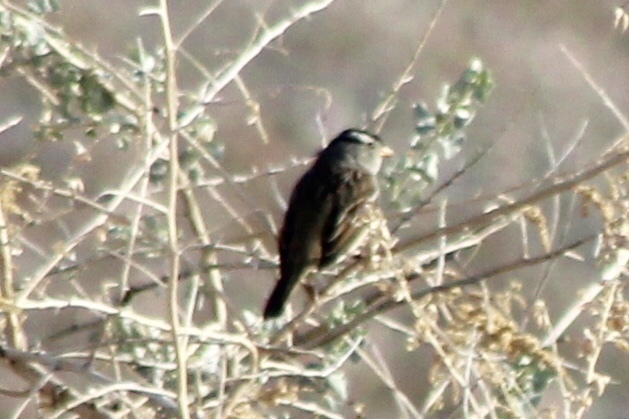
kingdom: Animalia
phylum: Chordata
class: Aves
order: Passeriformes
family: Passerellidae
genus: Zonotrichia
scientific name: Zonotrichia leucophrys
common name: White-crowned sparrow
